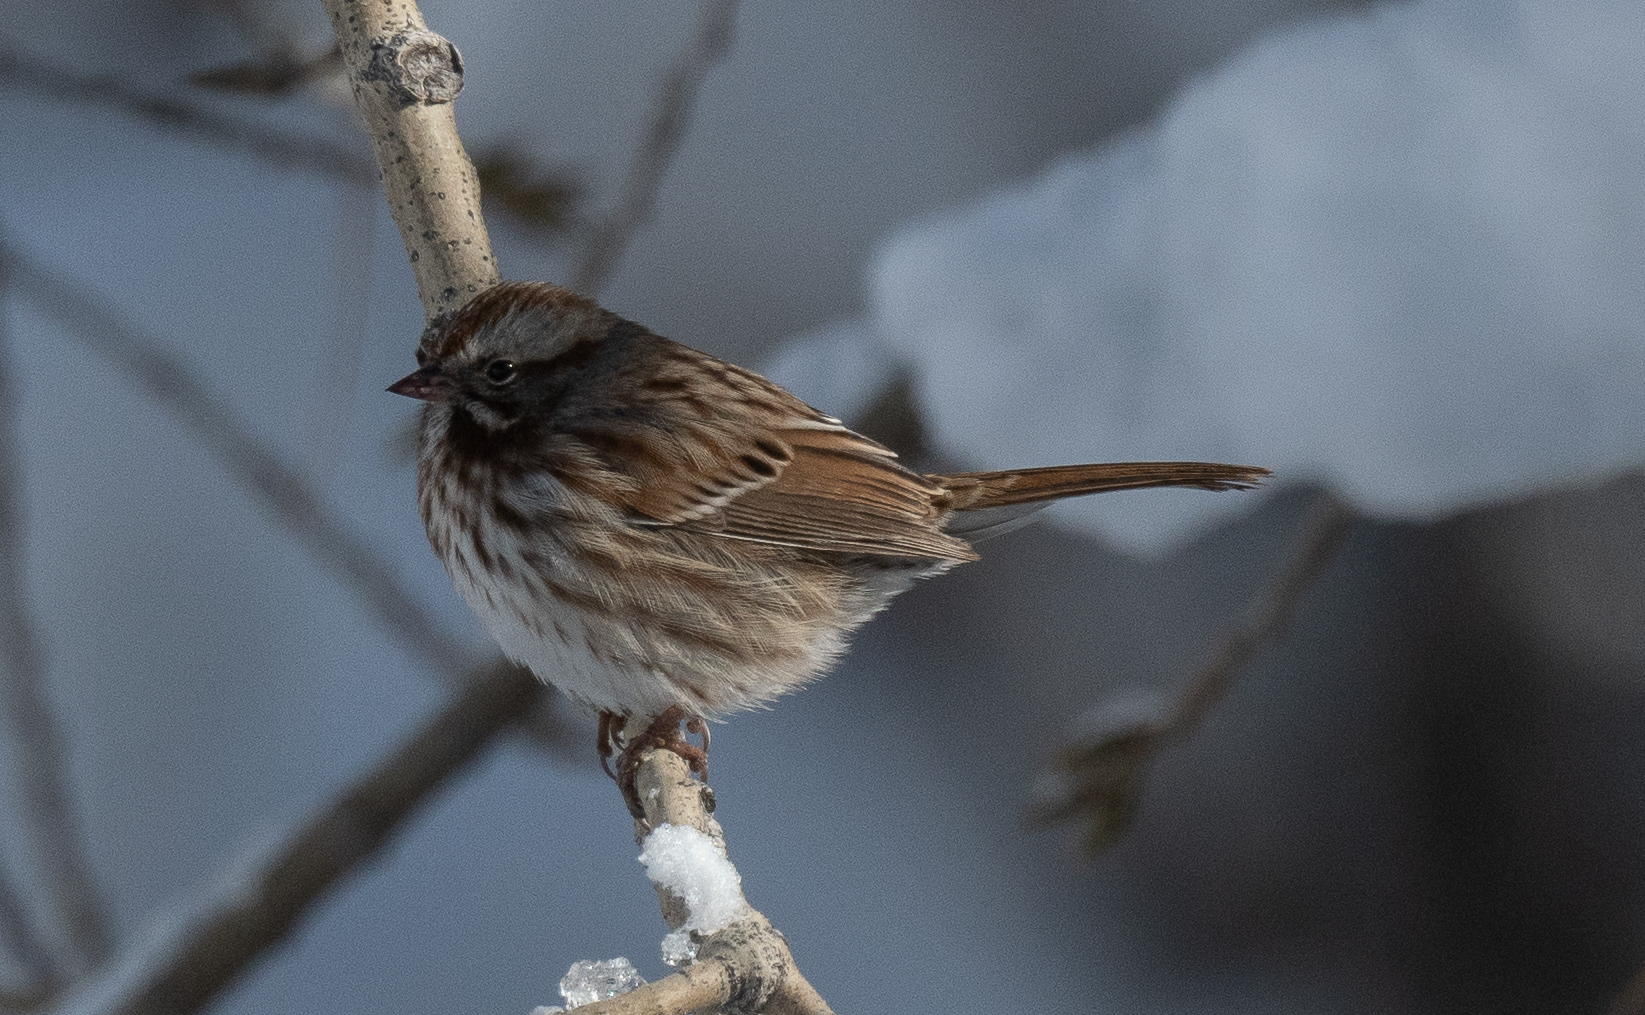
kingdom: Animalia
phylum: Chordata
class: Aves
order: Passeriformes
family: Passerellidae
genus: Melospiza
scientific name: Melospiza melodia
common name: Song sparrow
